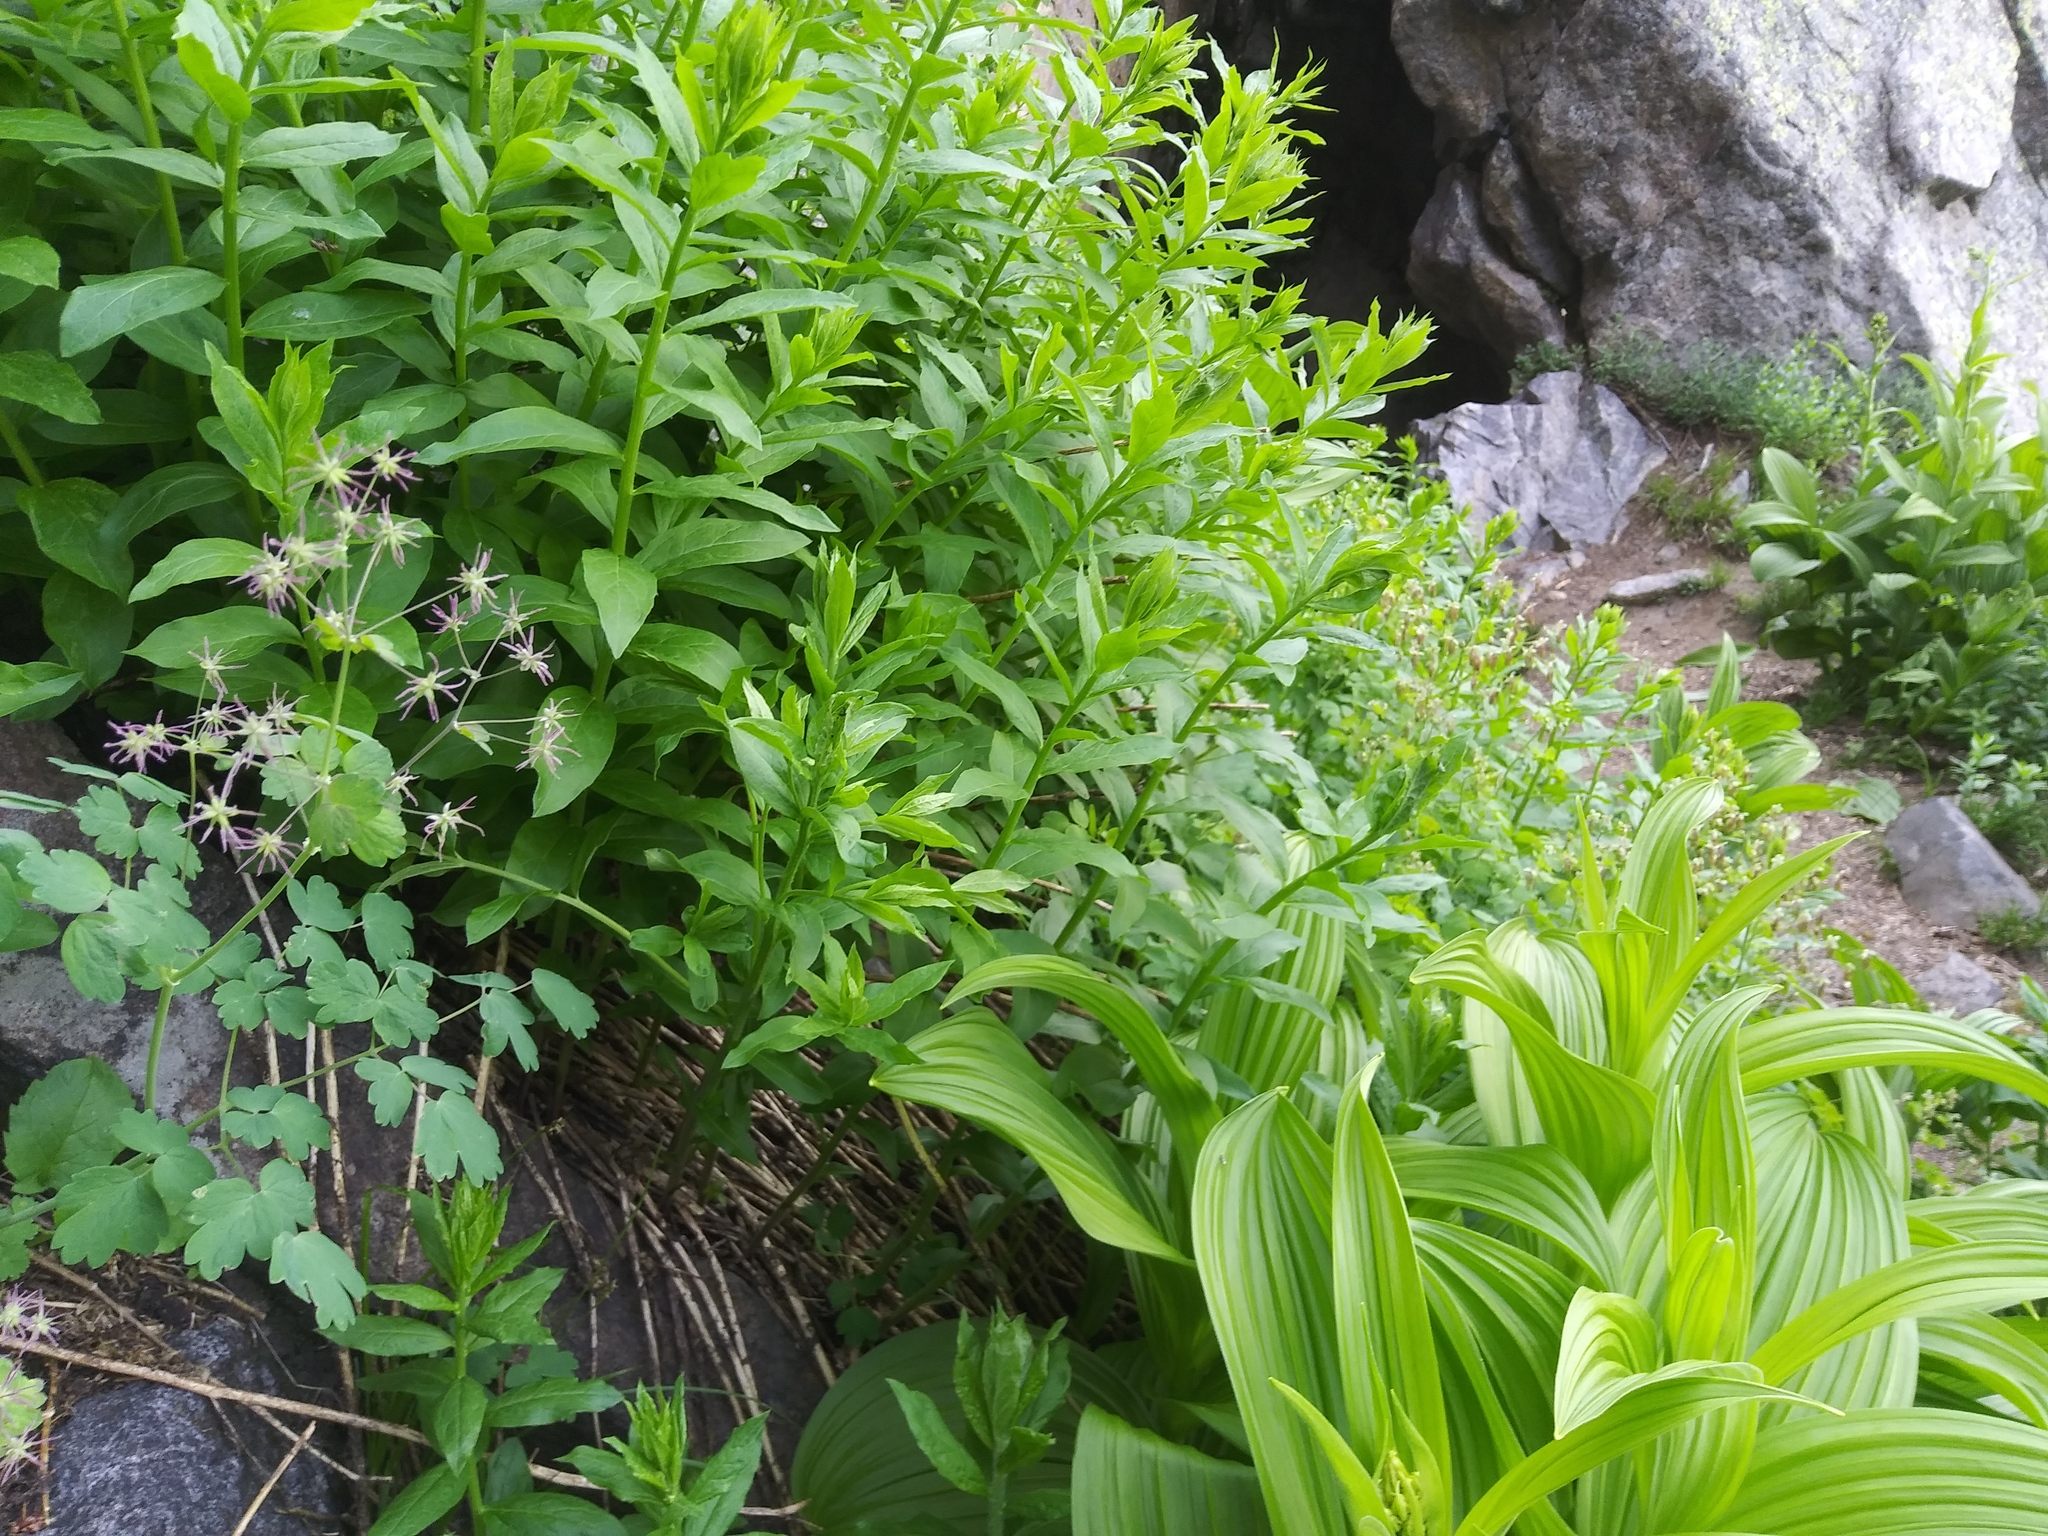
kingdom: Plantae
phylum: Tracheophyta
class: Magnoliopsida
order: Ranunculales
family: Ranunculaceae
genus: Thalictrum
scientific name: Thalictrum occidentale
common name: Western meadow-rue
